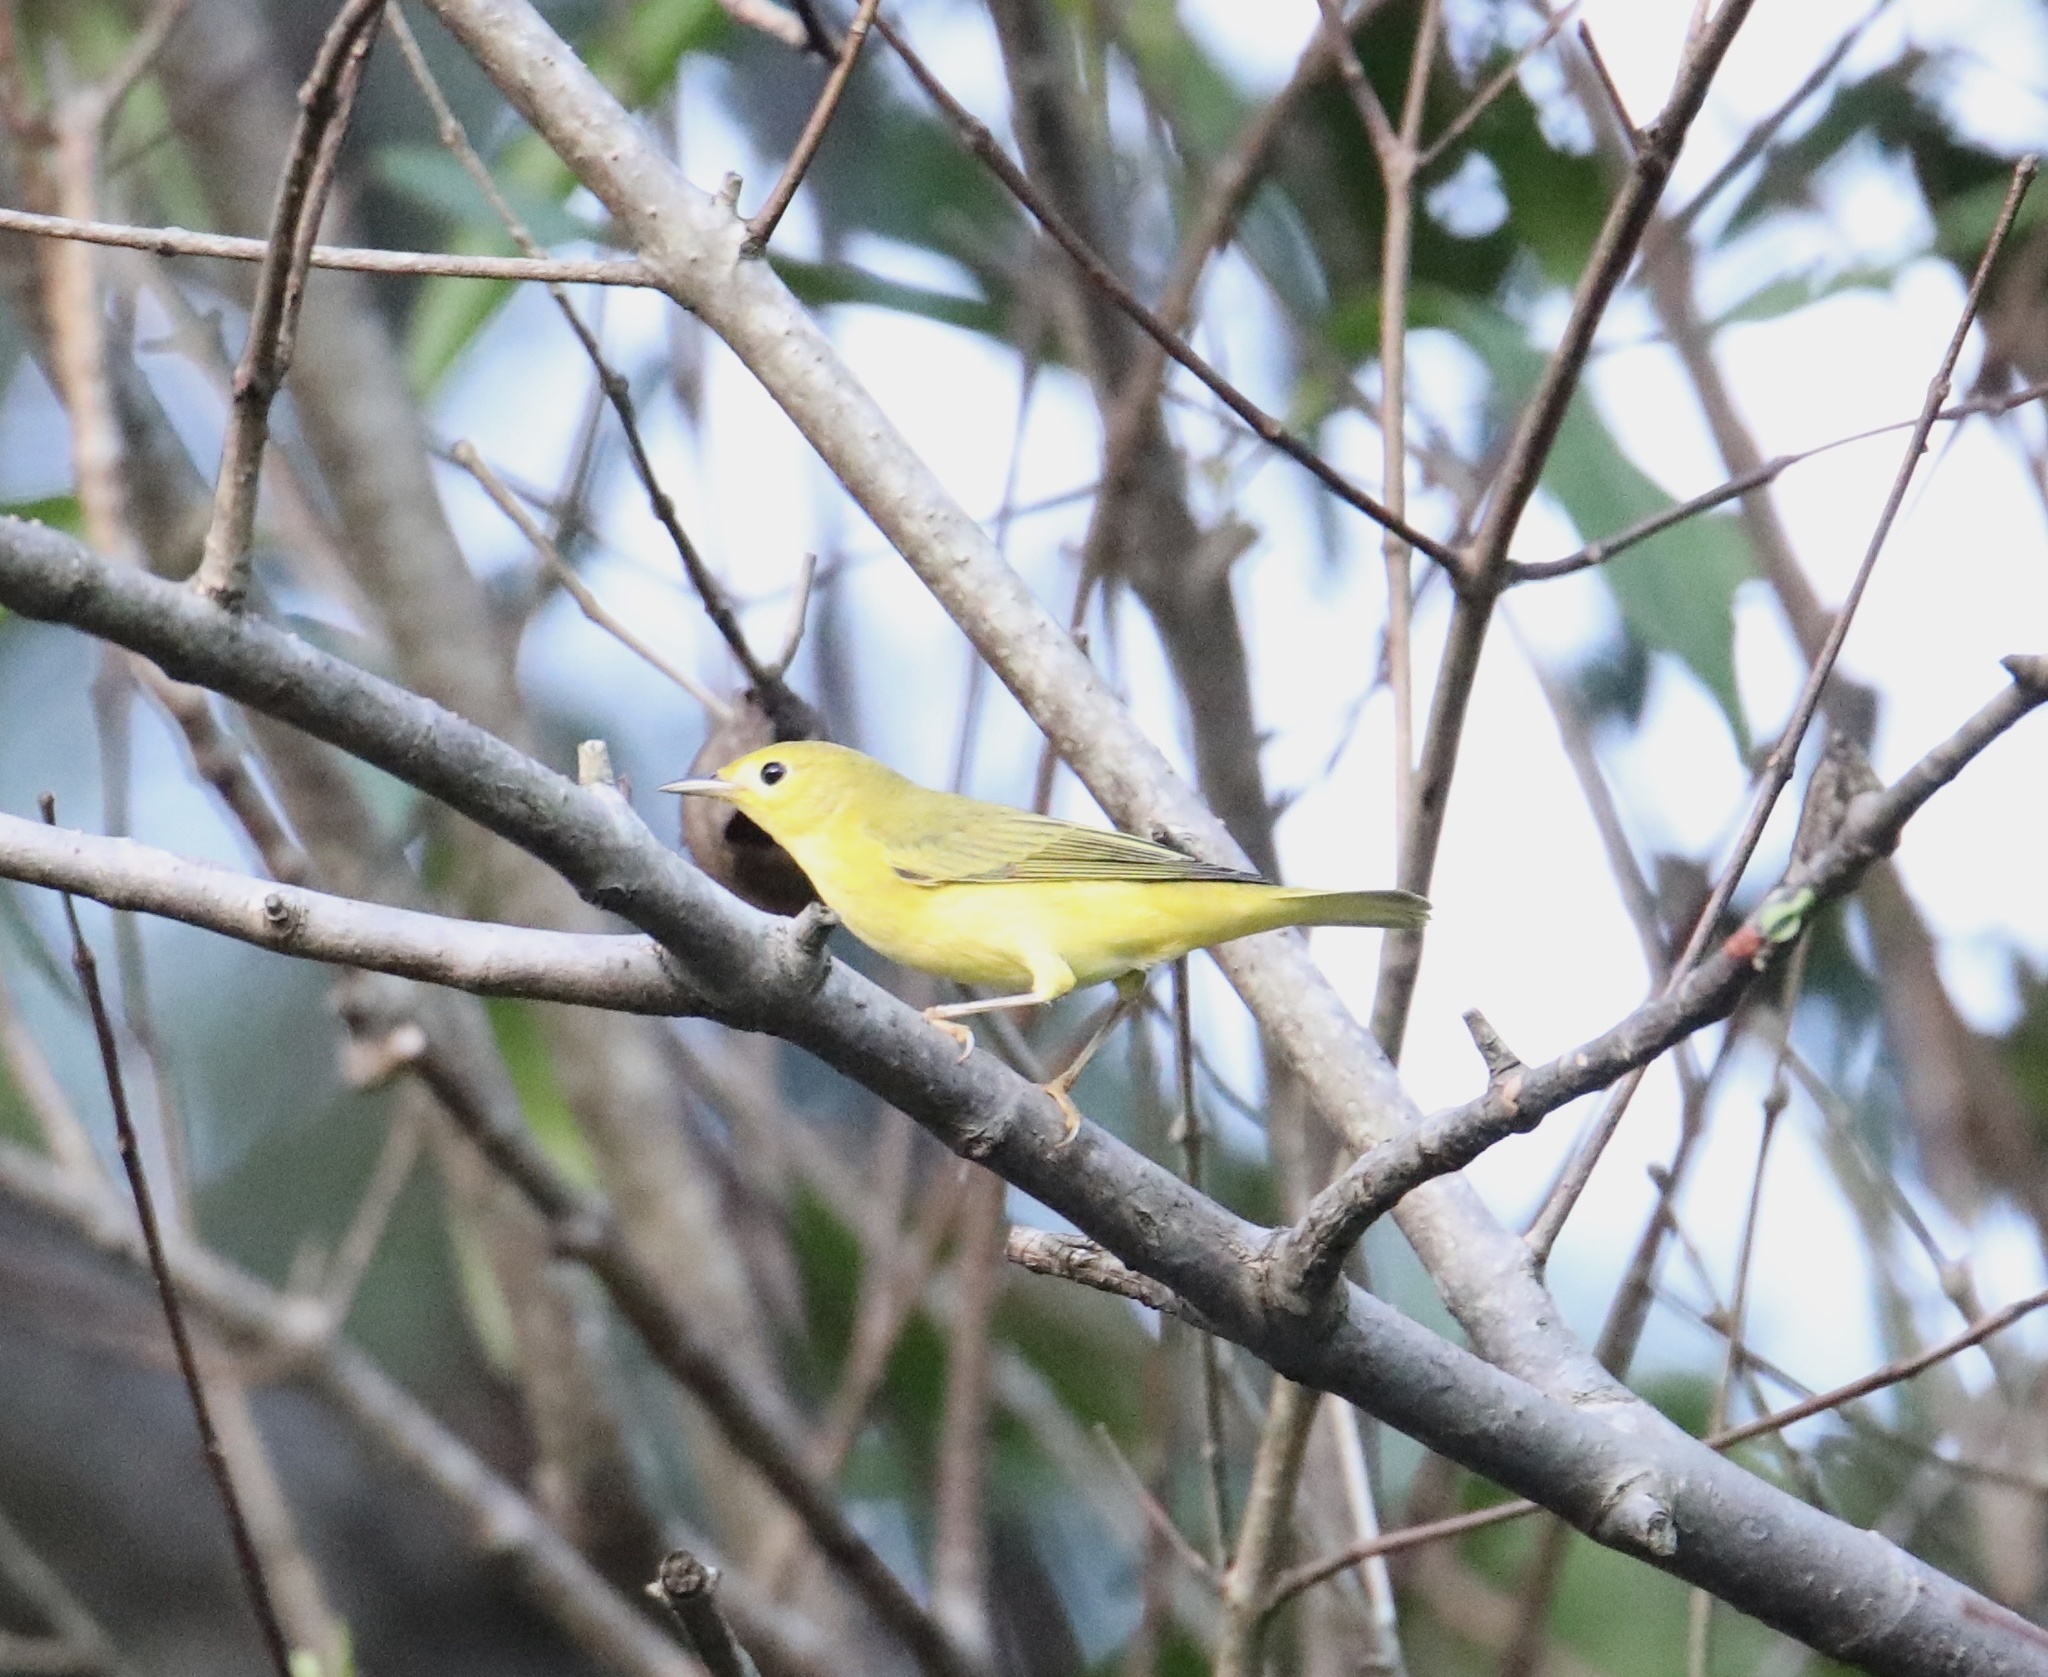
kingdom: Animalia
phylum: Chordata
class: Aves
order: Passeriformes
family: Parulidae
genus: Setophaga
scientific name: Setophaga petechia
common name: Yellow warbler
